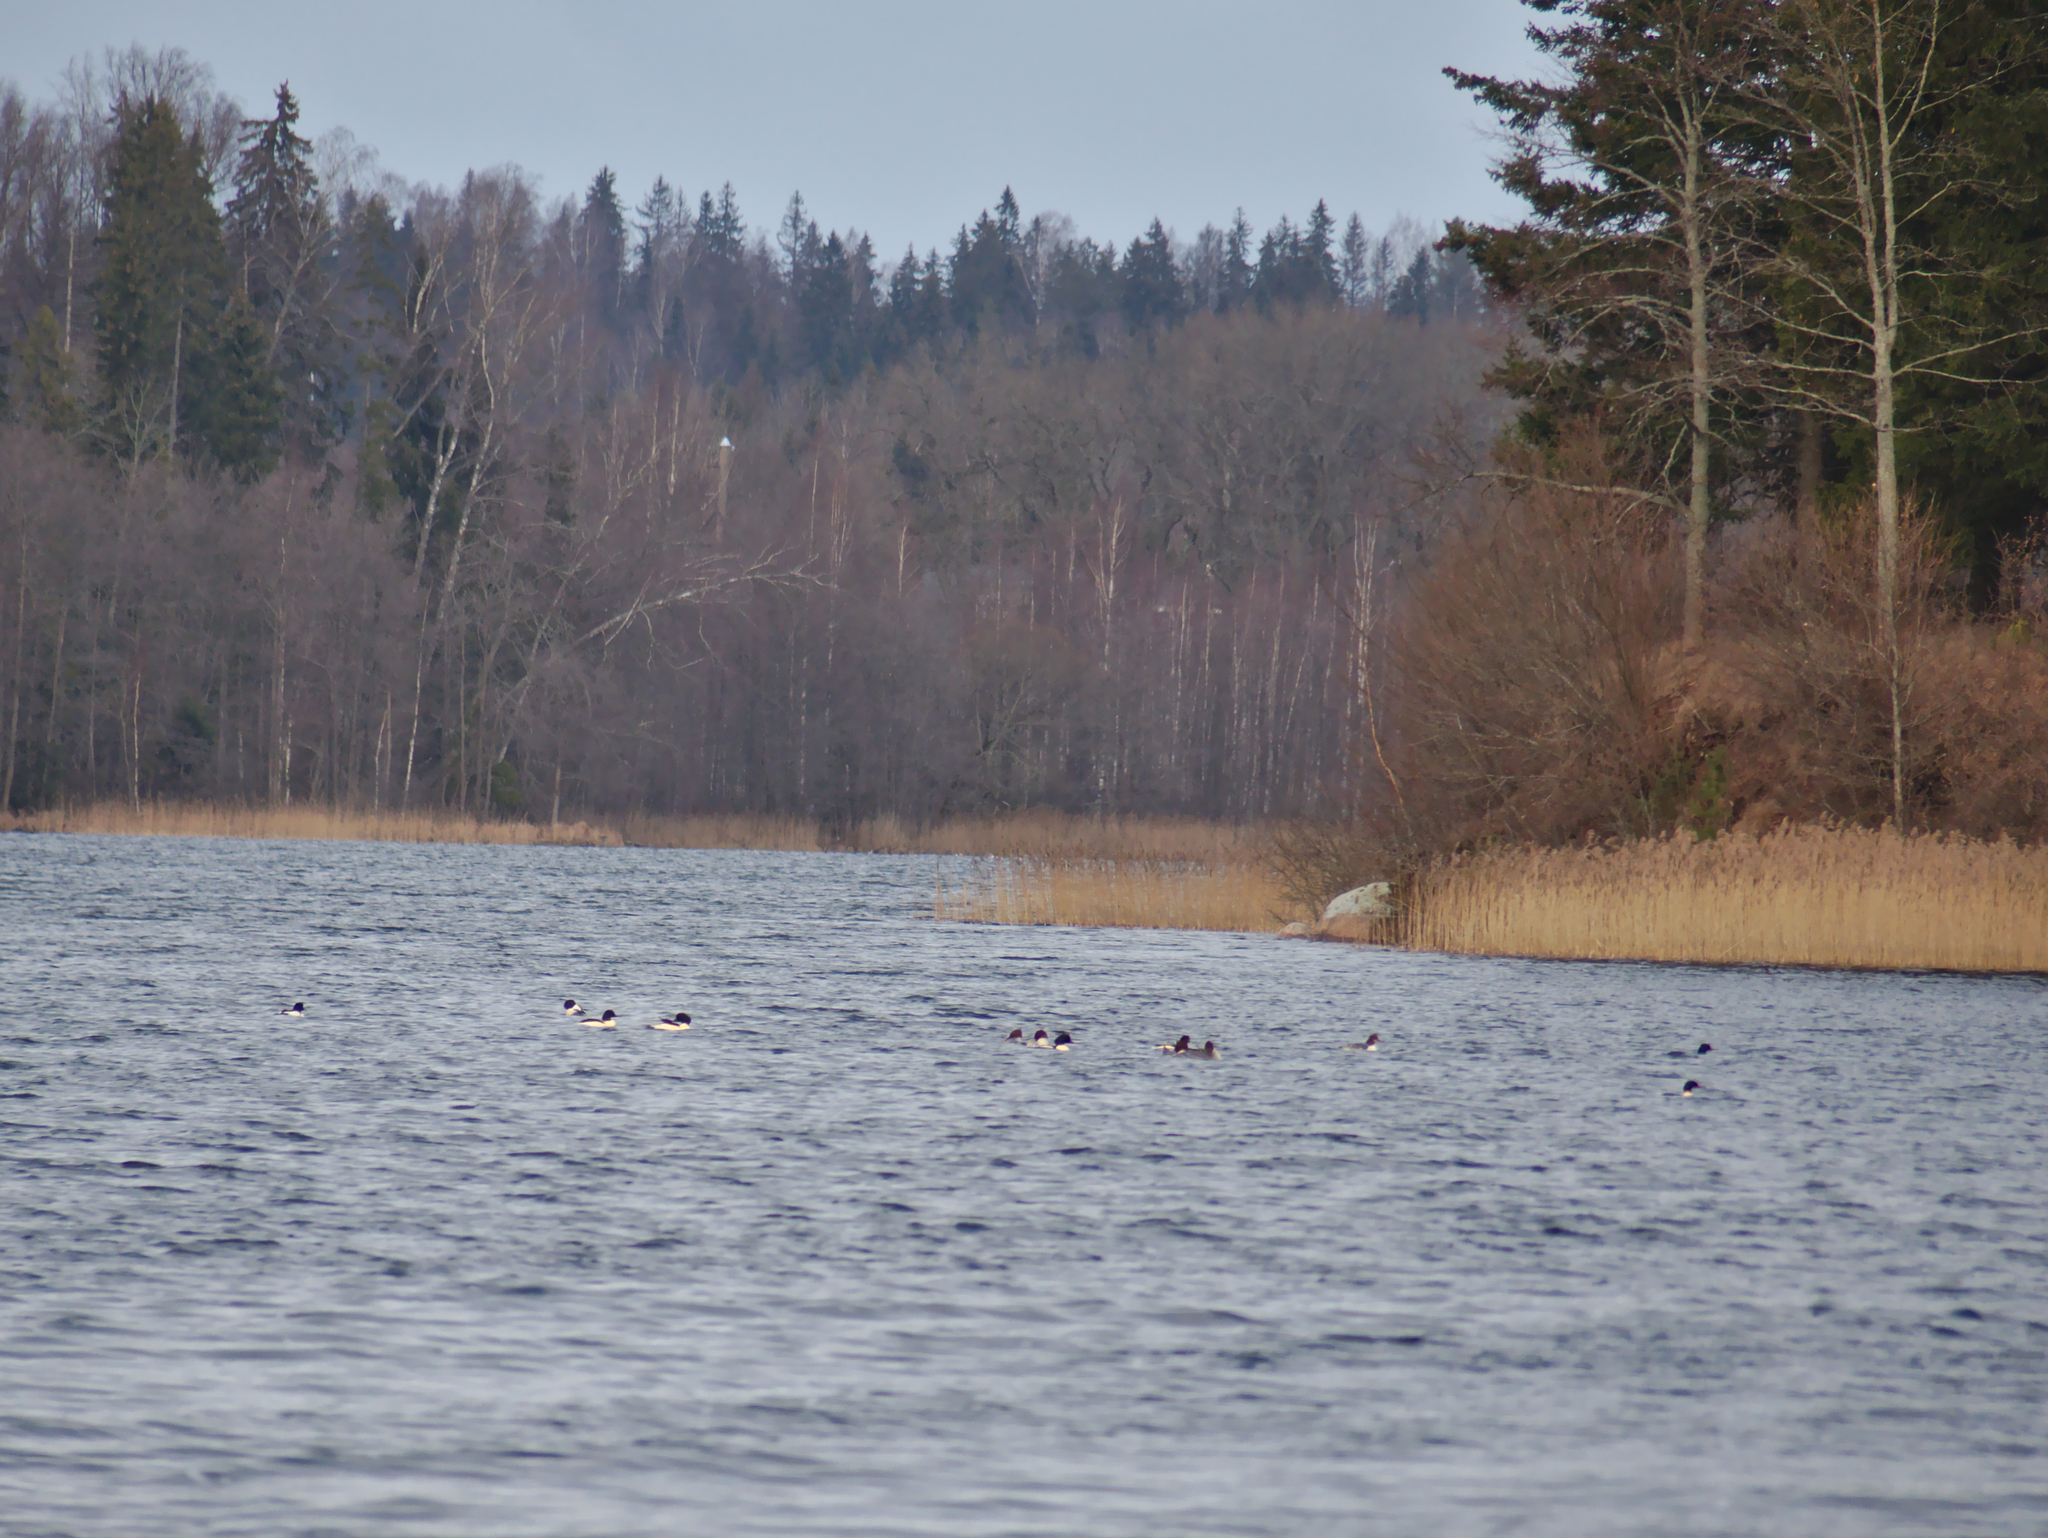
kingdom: Animalia
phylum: Chordata
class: Aves
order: Anseriformes
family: Anatidae
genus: Mergus
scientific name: Mergus merganser
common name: Common merganser
